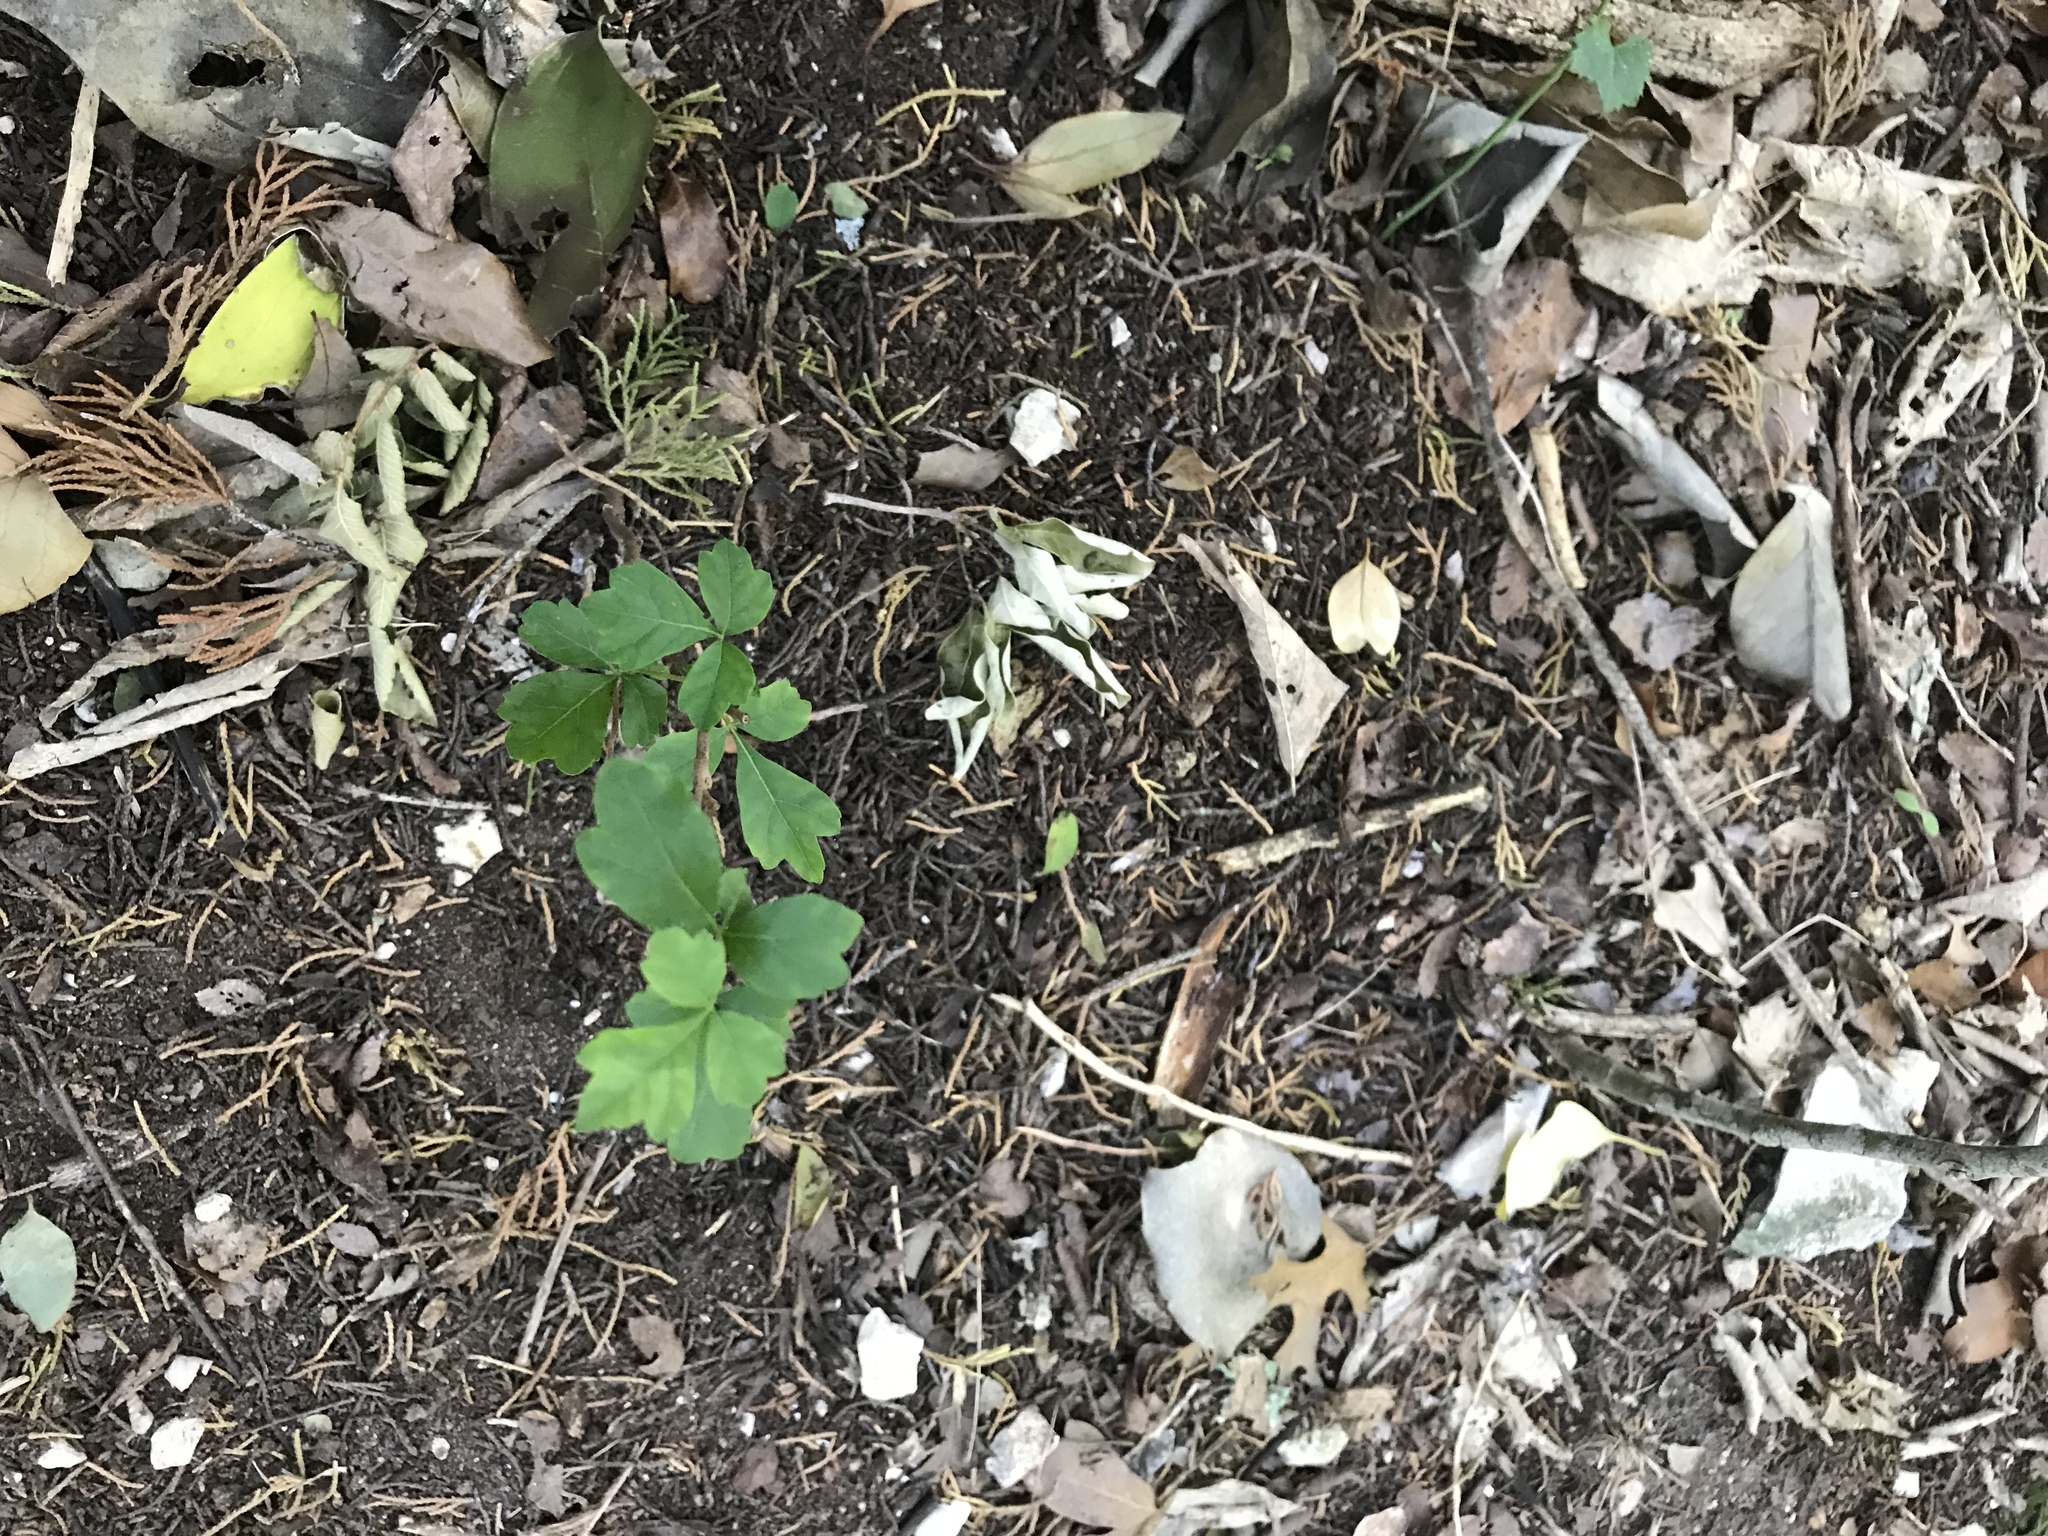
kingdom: Plantae
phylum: Tracheophyta
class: Magnoliopsida
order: Sapindales
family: Anacardiaceae
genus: Rhus
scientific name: Rhus aromatica
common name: Aromatic sumac
